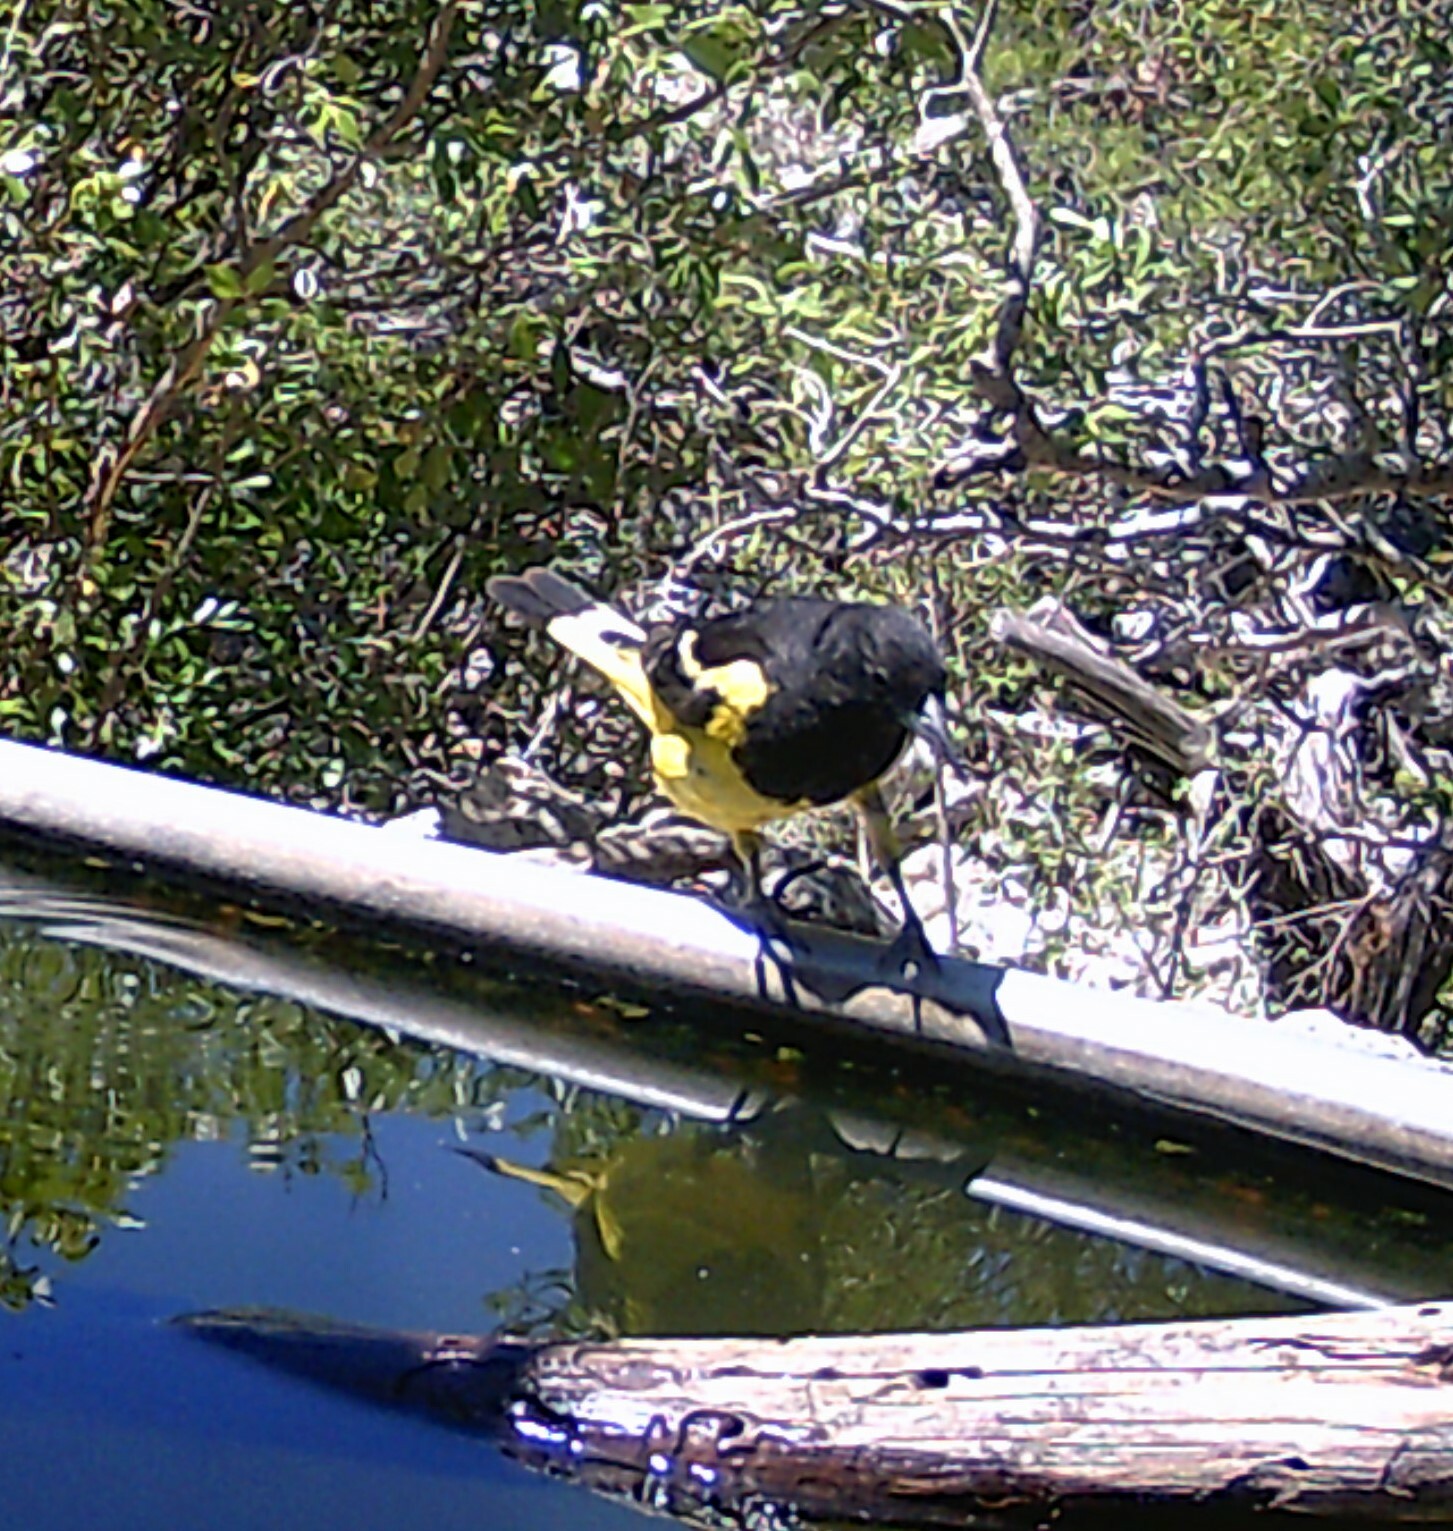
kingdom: Animalia
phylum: Chordata
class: Aves
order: Passeriformes
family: Icteridae
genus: Icterus
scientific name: Icterus parisorum
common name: Scott's oriole
